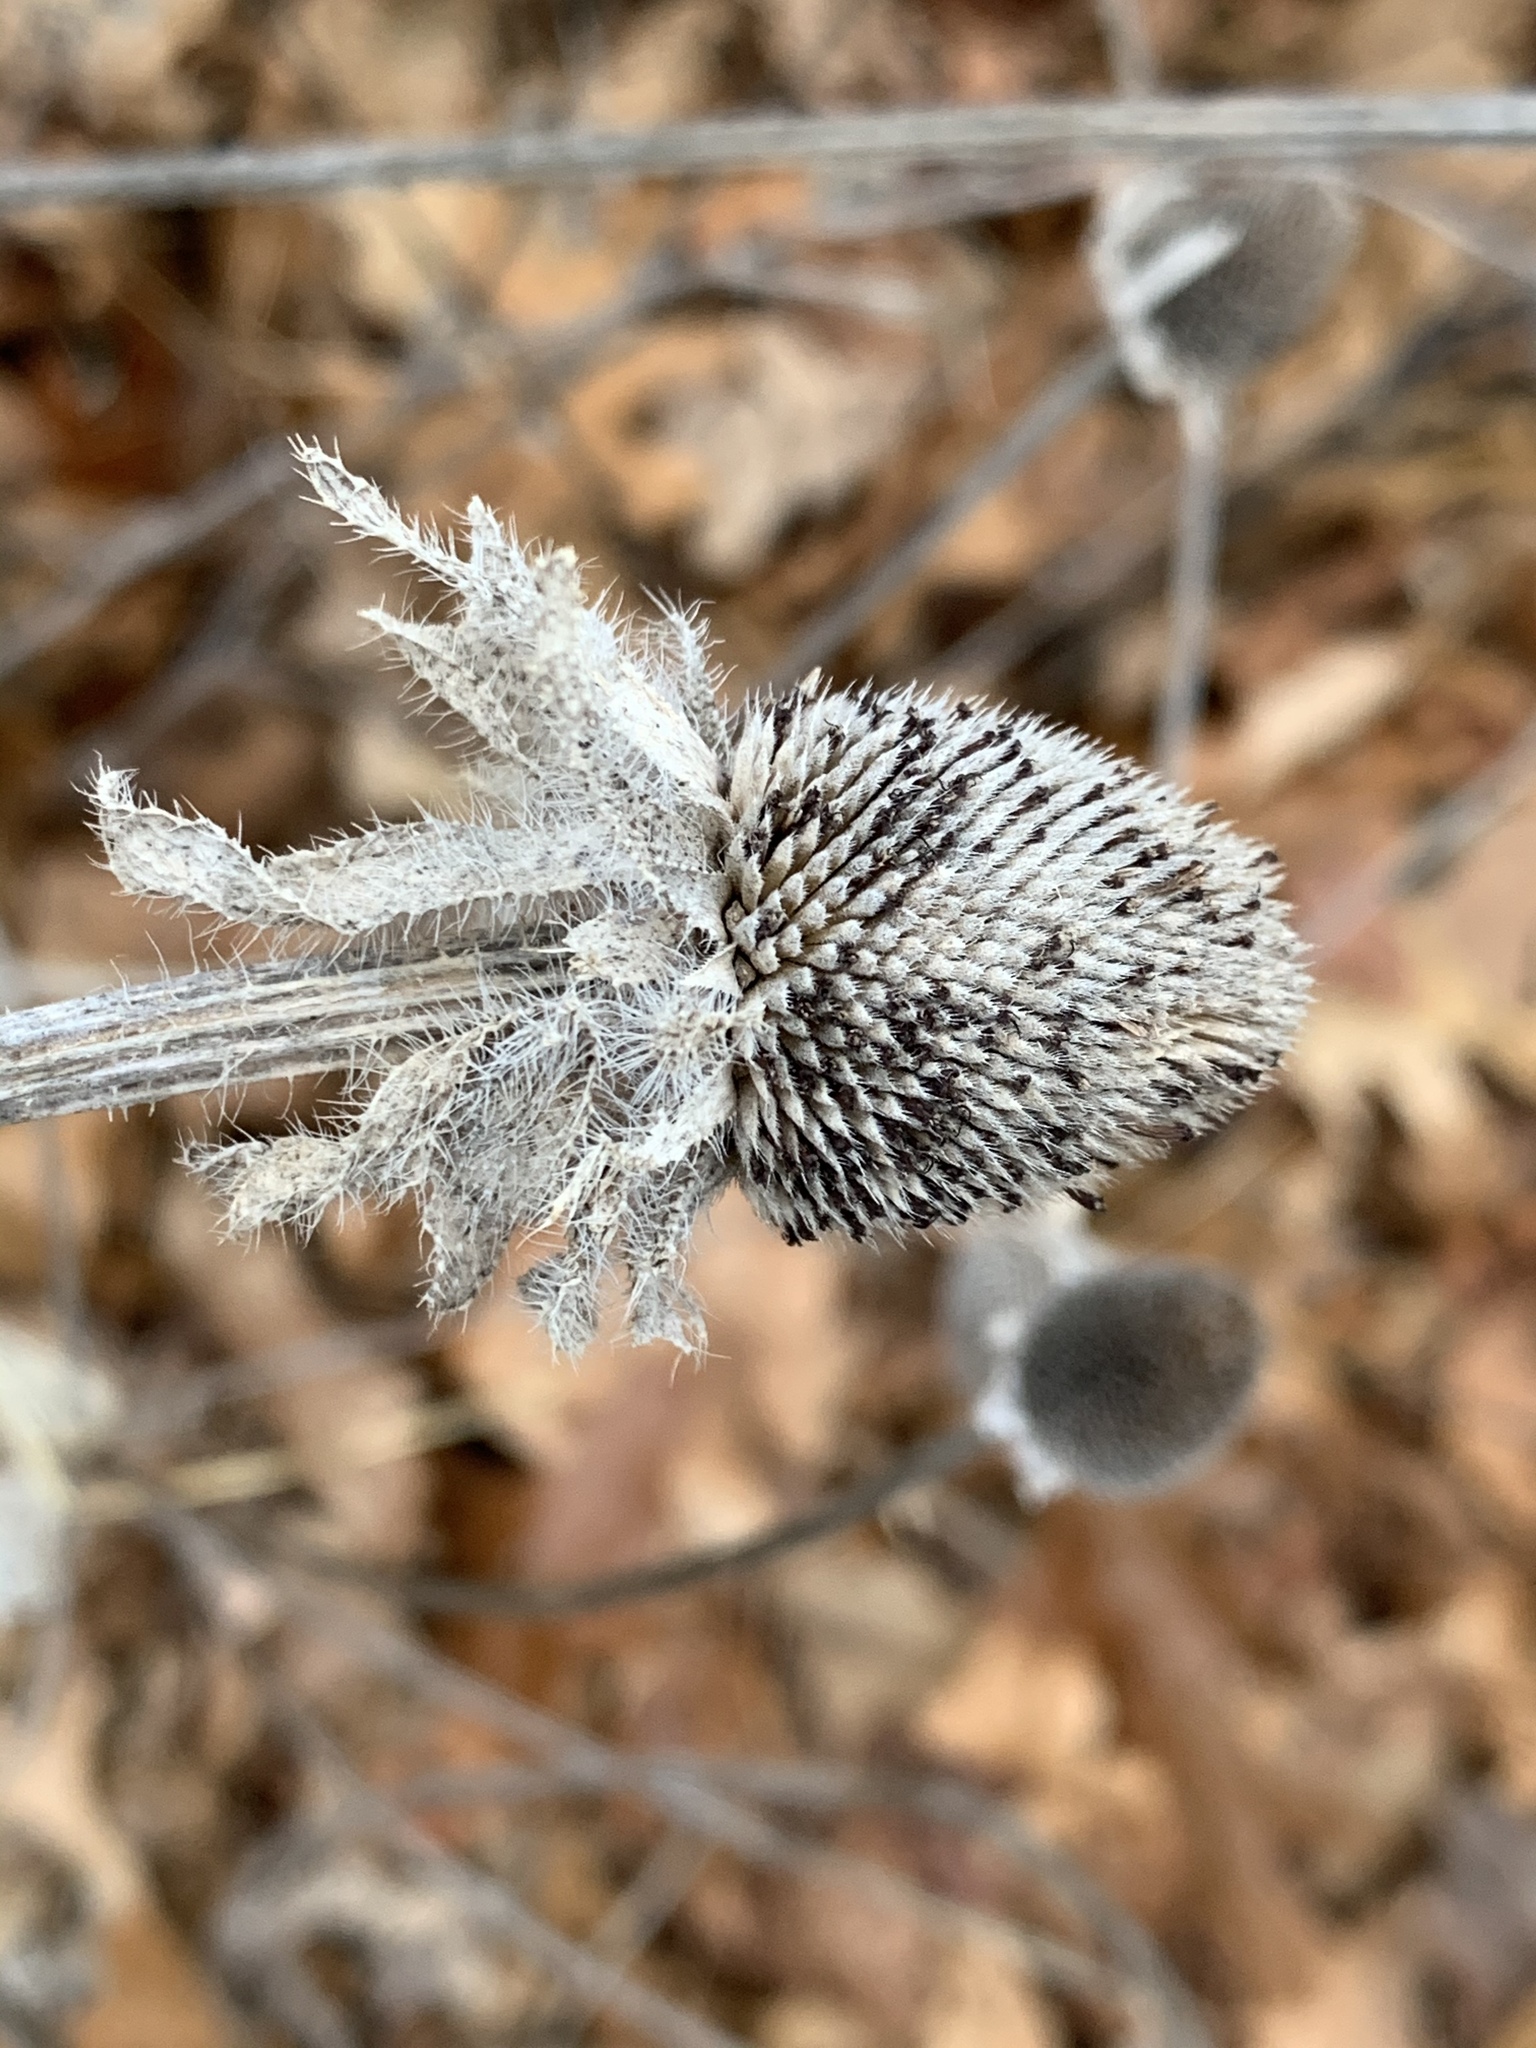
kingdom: Plantae
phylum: Tracheophyta
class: Magnoliopsida
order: Asterales
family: Asteraceae
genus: Rudbeckia
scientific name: Rudbeckia hirta
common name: Black-eyed-susan
